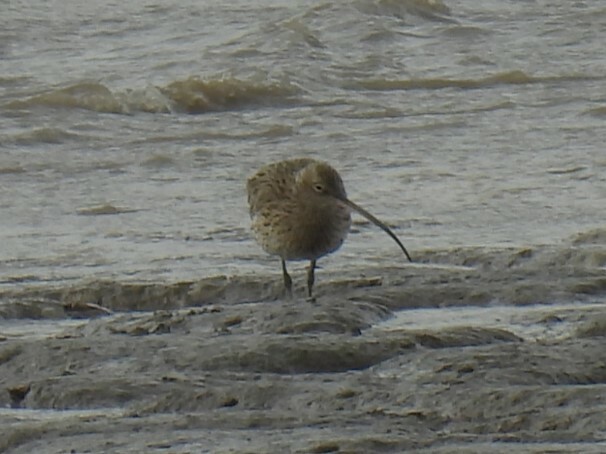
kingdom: Animalia
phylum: Chordata
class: Aves
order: Charadriiformes
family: Scolopacidae
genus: Numenius
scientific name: Numenius arquata
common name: Eurasian curlew
